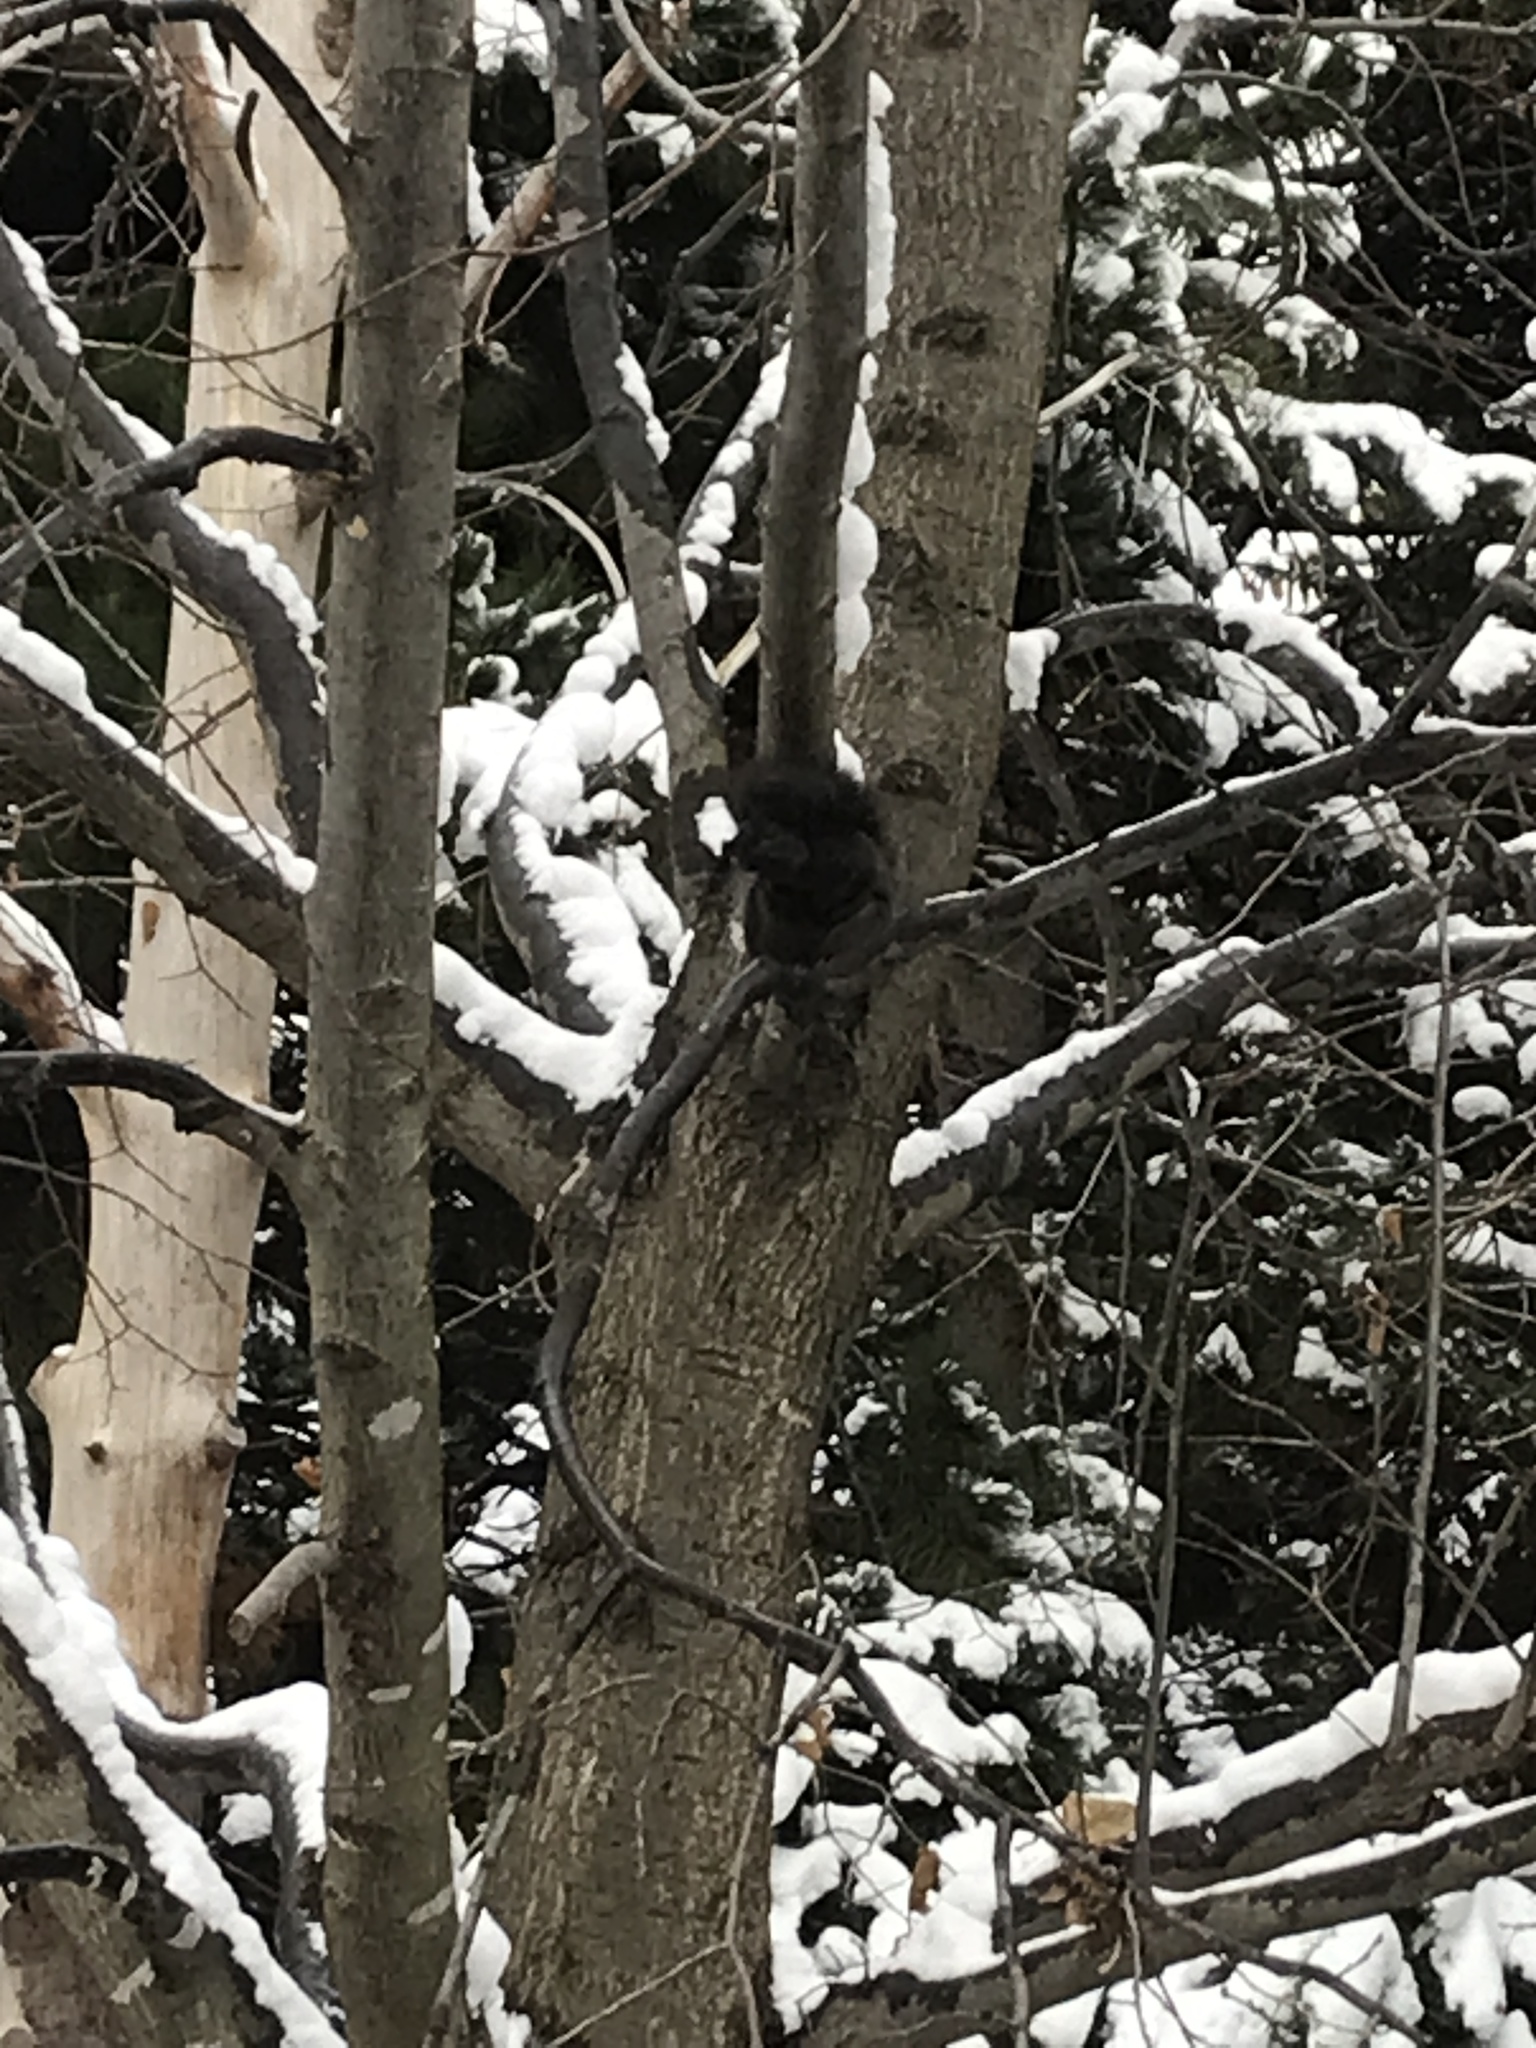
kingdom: Animalia
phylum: Chordata
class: Mammalia
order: Rodentia
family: Sciuridae
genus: Sciurus
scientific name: Sciurus carolinensis
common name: Eastern gray squirrel
